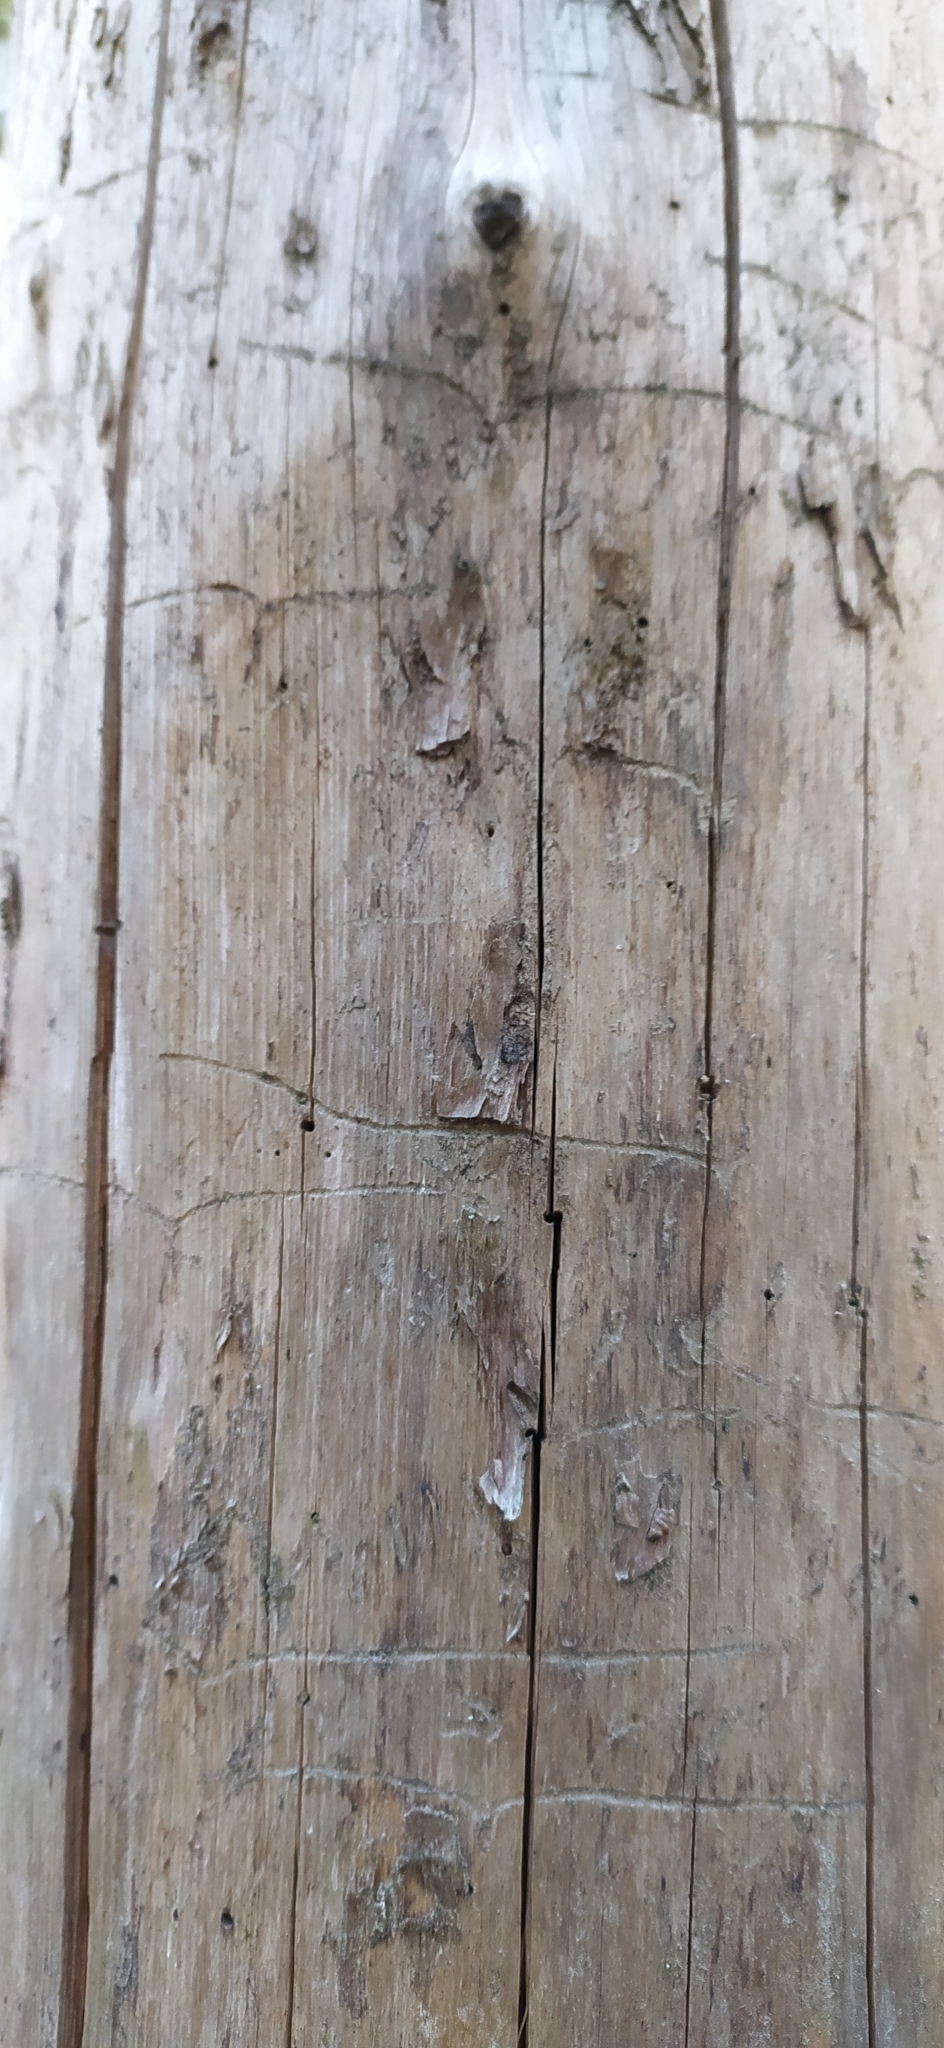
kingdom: Animalia
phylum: Arthropoda
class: Insecta
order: Coleoptera
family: Curculionidae
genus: Tomicus
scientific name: Tomicus minor
